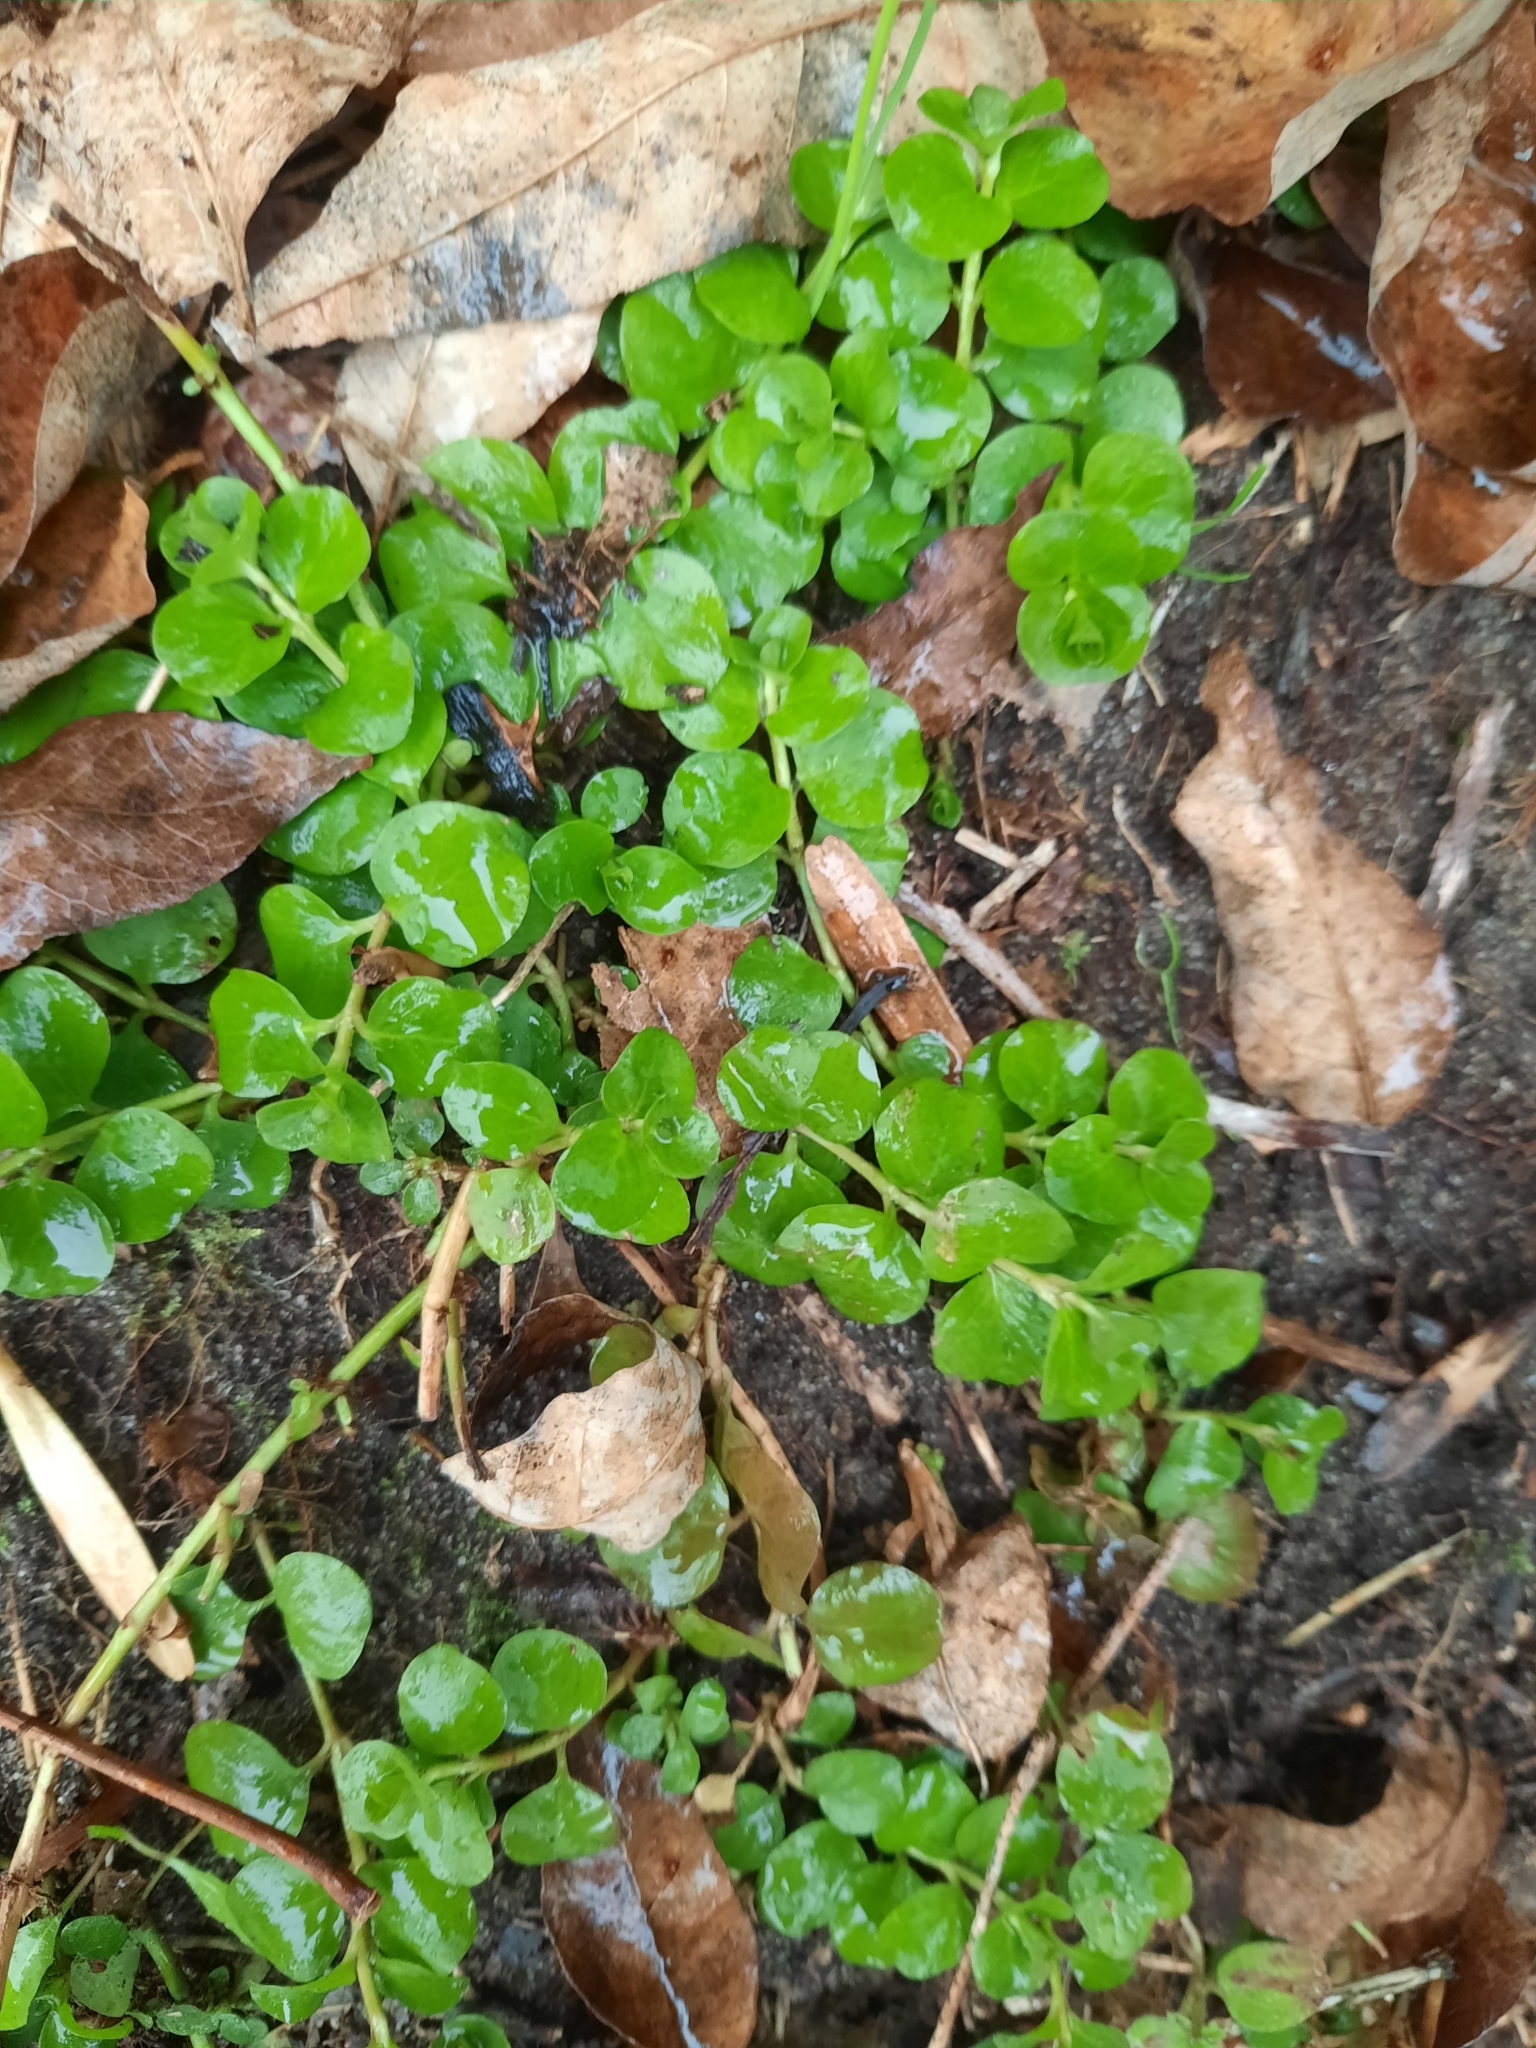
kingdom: Plantae
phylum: Tracheophyta
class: Magnoliopsida
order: Ericales
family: Primulaceae
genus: Lysimachia
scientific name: Lysimachia nummularia
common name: Moneywort
